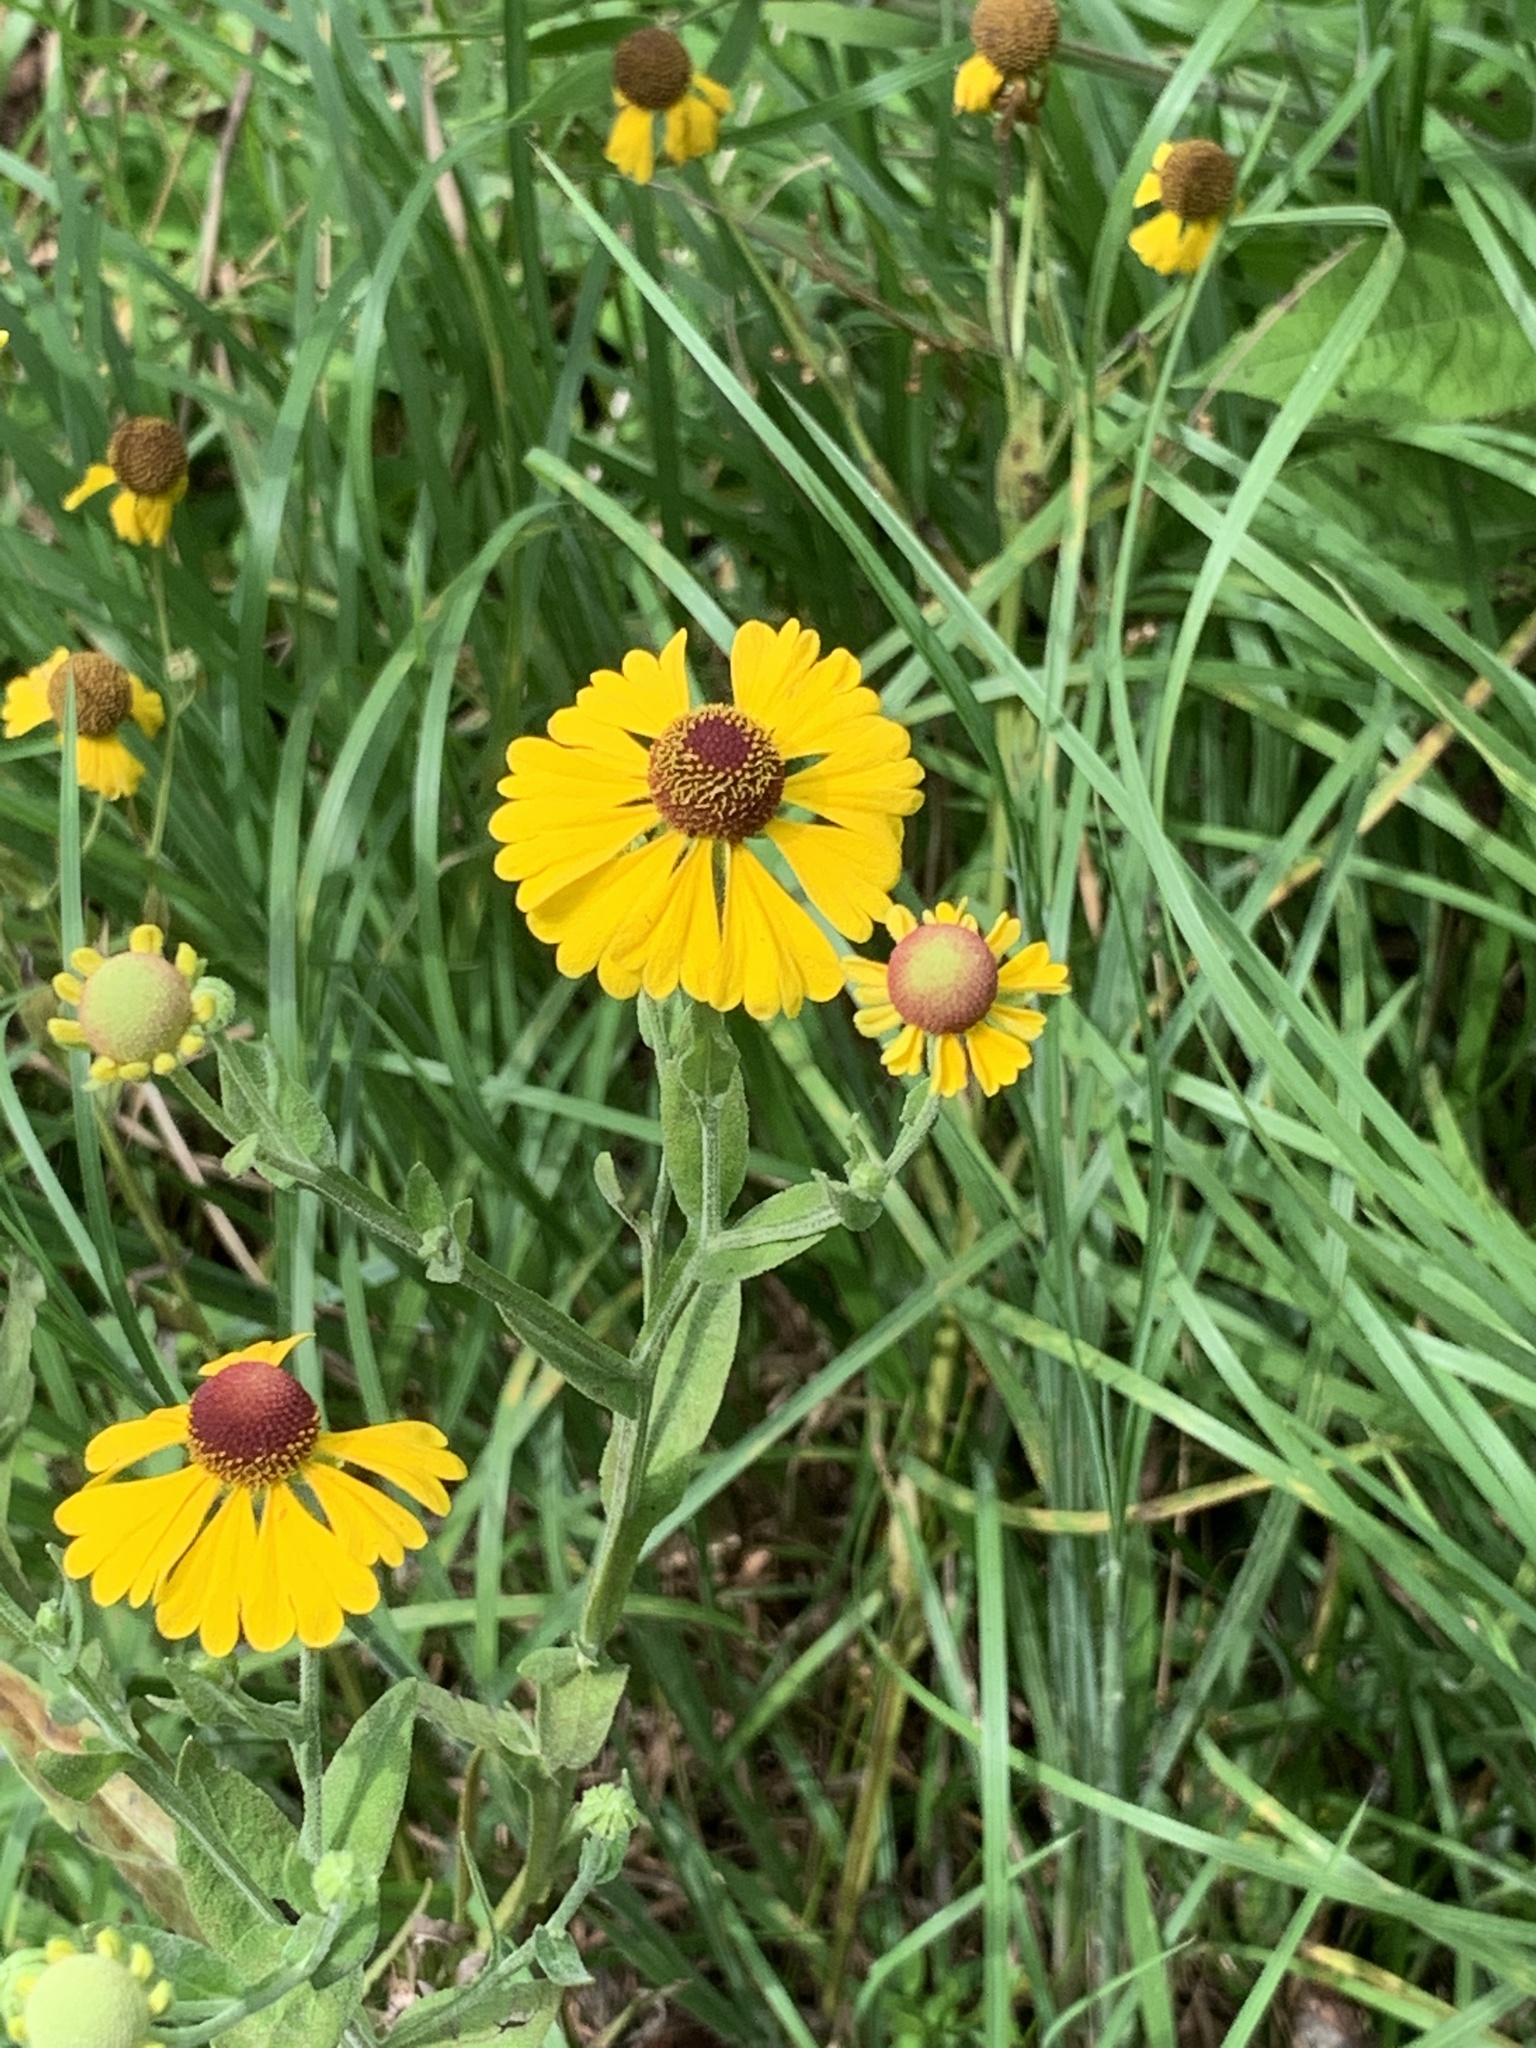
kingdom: Plantae
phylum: Tracheophyta
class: Magnoliopsida
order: Asterales
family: Asteraceae
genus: Helenium
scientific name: Helenium flexuosum
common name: Naked-flowered sneezeweed
